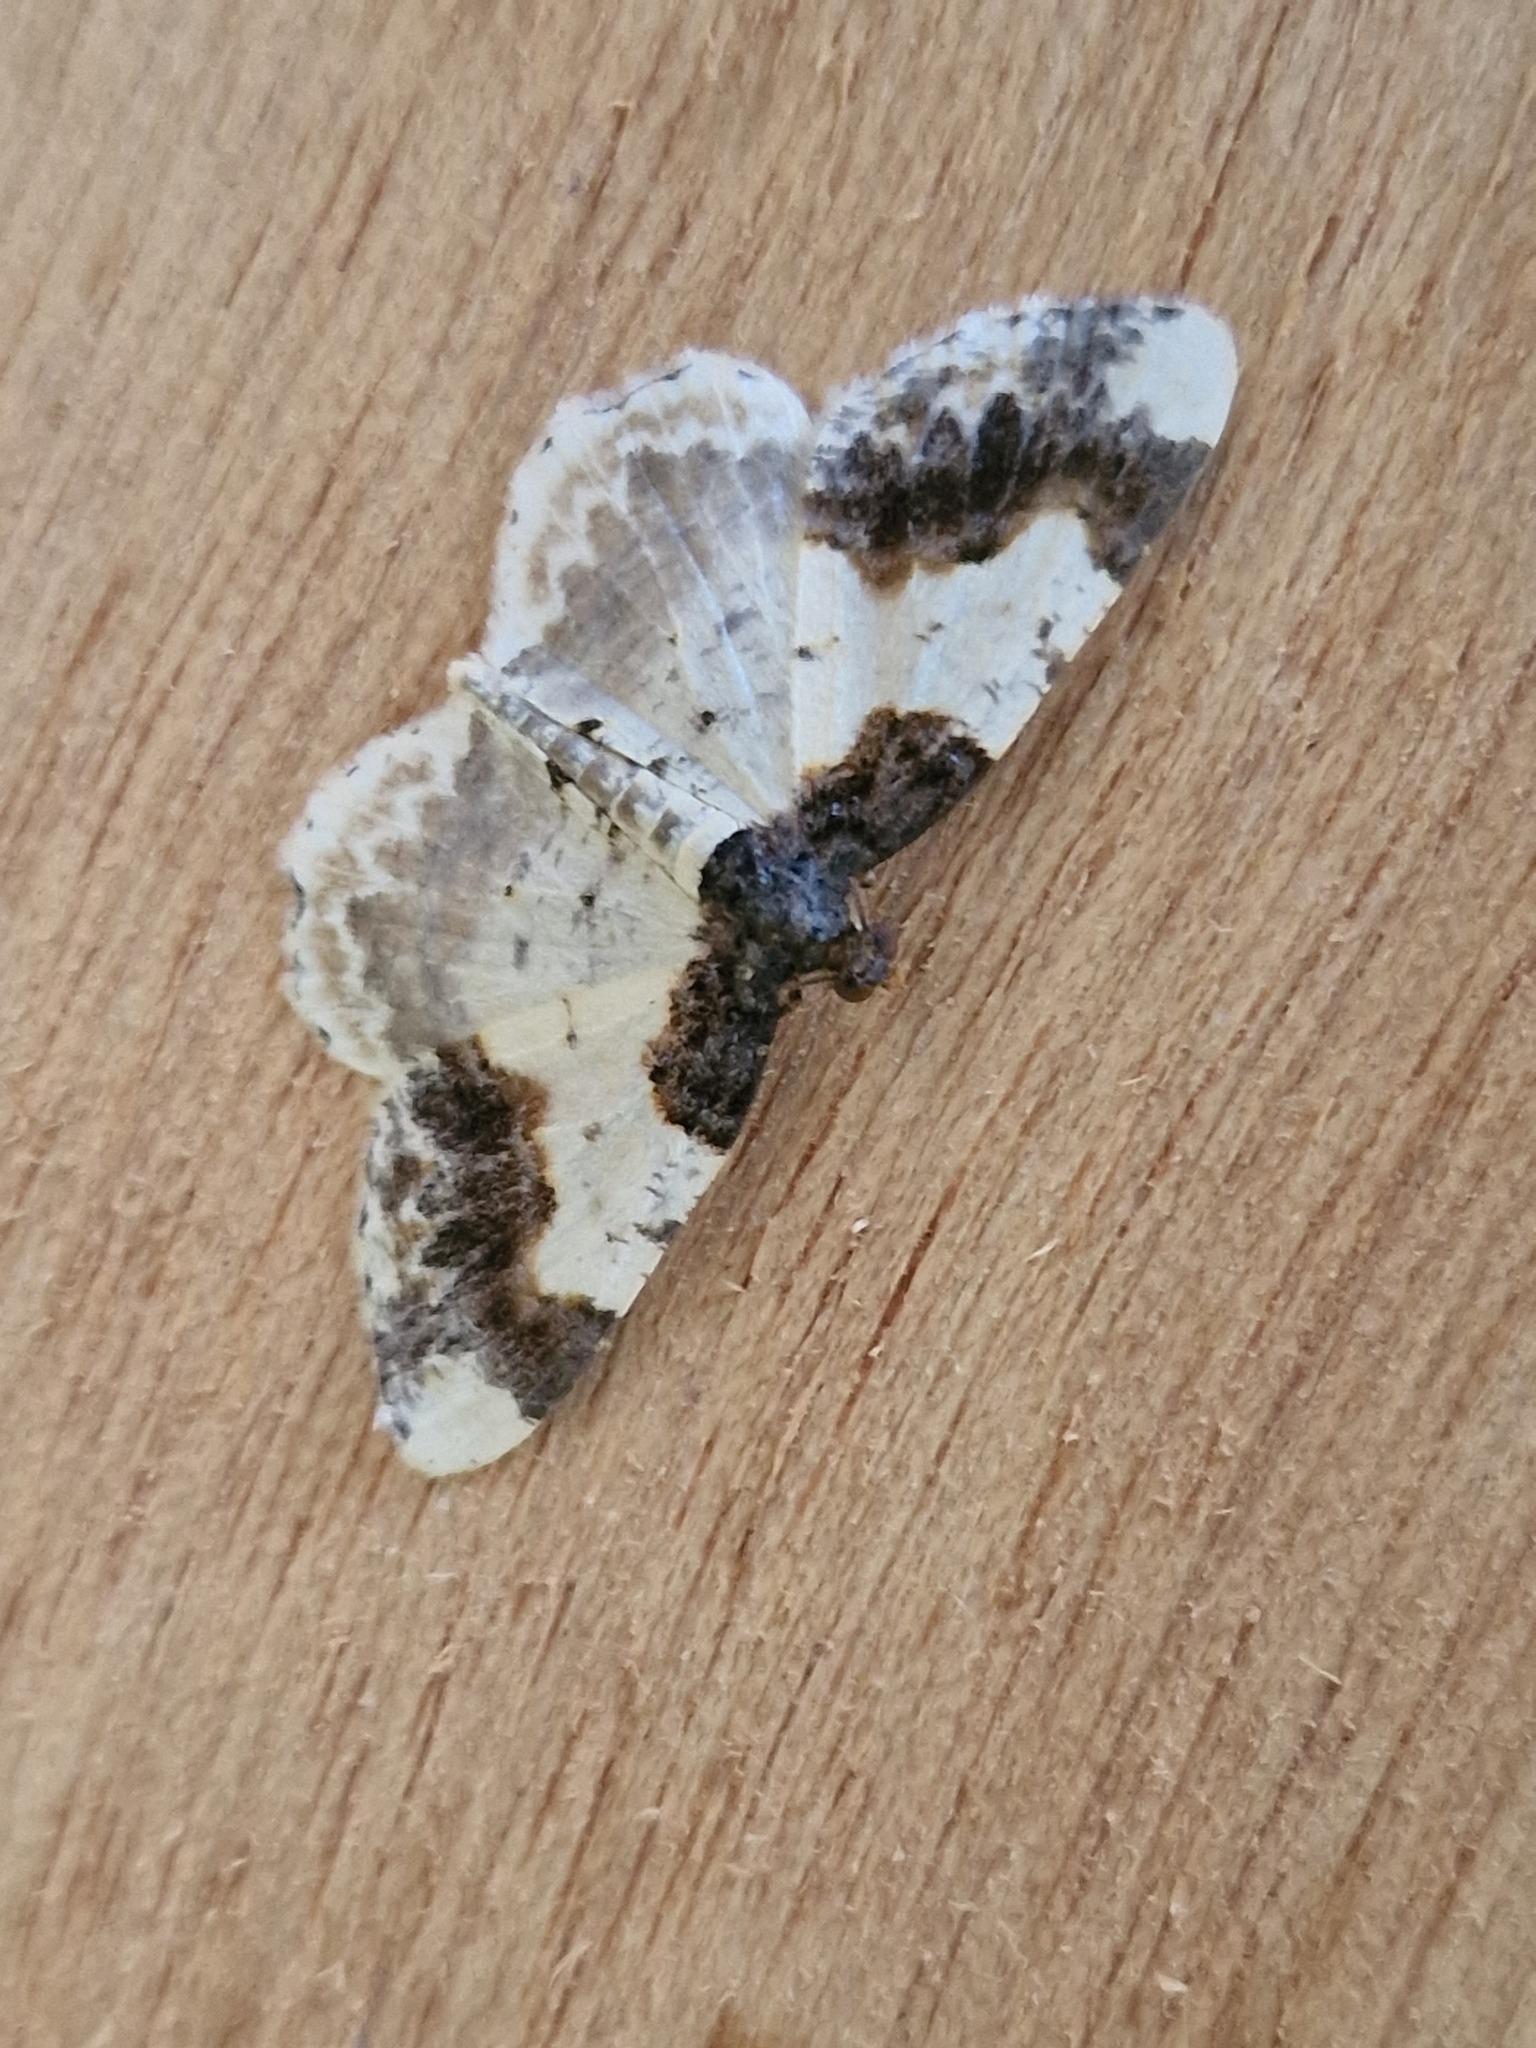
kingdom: Animalia
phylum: Arthropoda
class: Insecta
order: Lepidoptera
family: Geometridae
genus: Ligdia
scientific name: Ligdia adustata
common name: Scorched carpet
